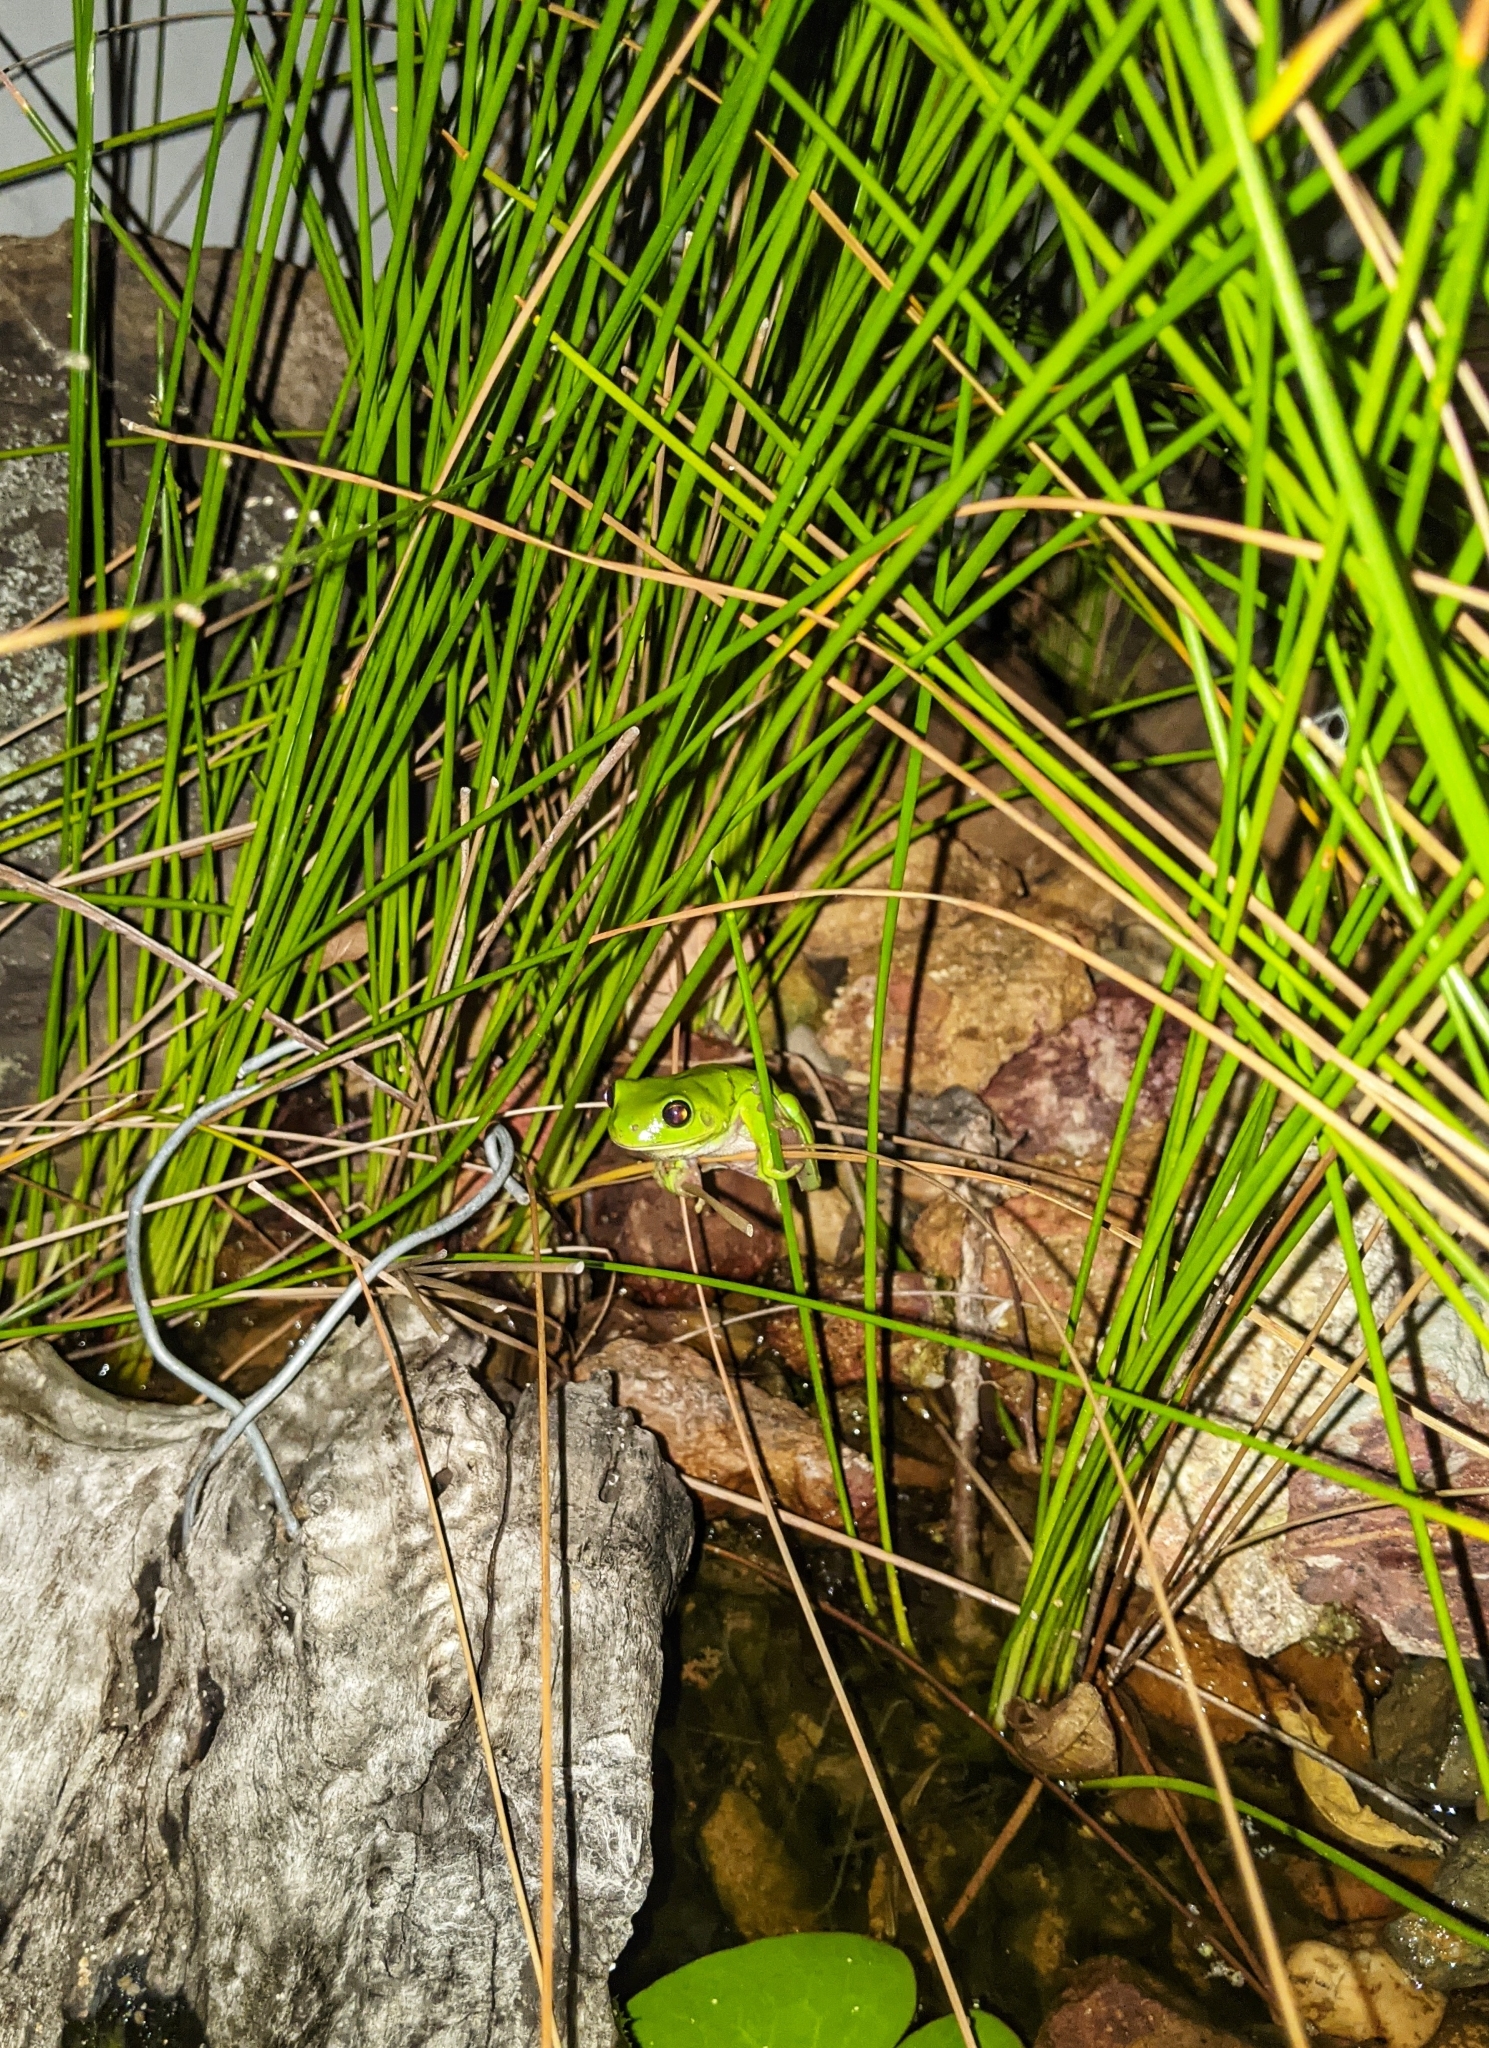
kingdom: Animalia
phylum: Chordata
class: Amphibia
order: Anura
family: Pelodryadidae
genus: Ranoidea
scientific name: Ranoidea caerulea
